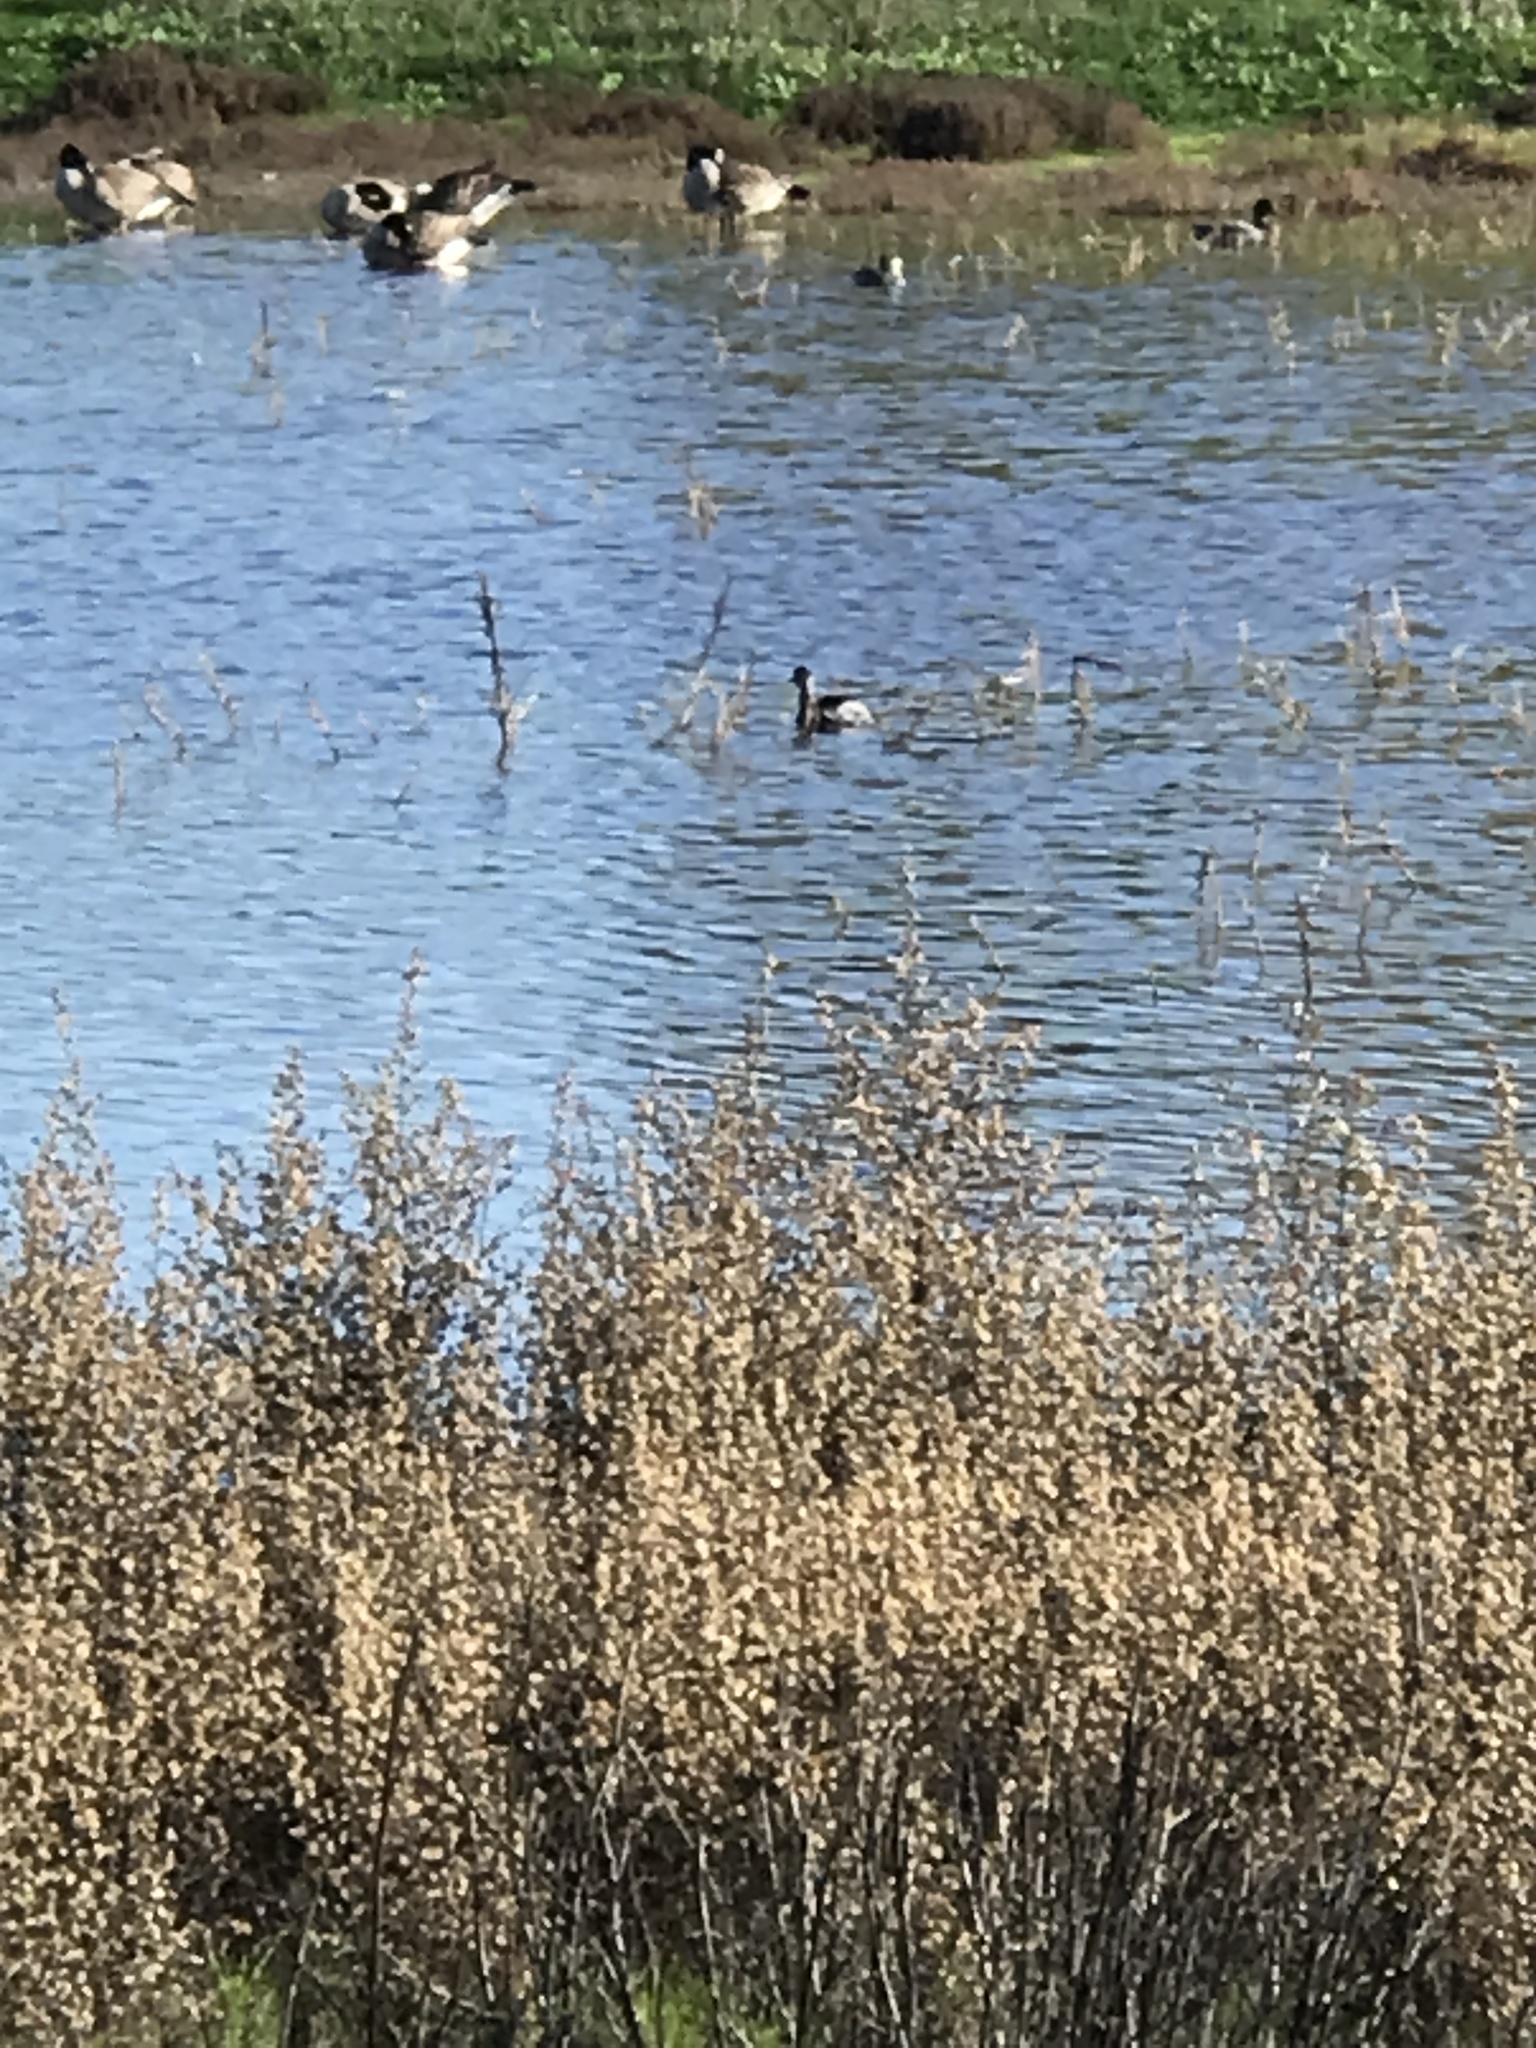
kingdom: Animalia
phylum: Chordata
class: Aves
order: Podicipediformes
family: Podicipedidae
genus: Podiceps
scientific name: Podiceps nigricollis
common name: Black-necked grebe
